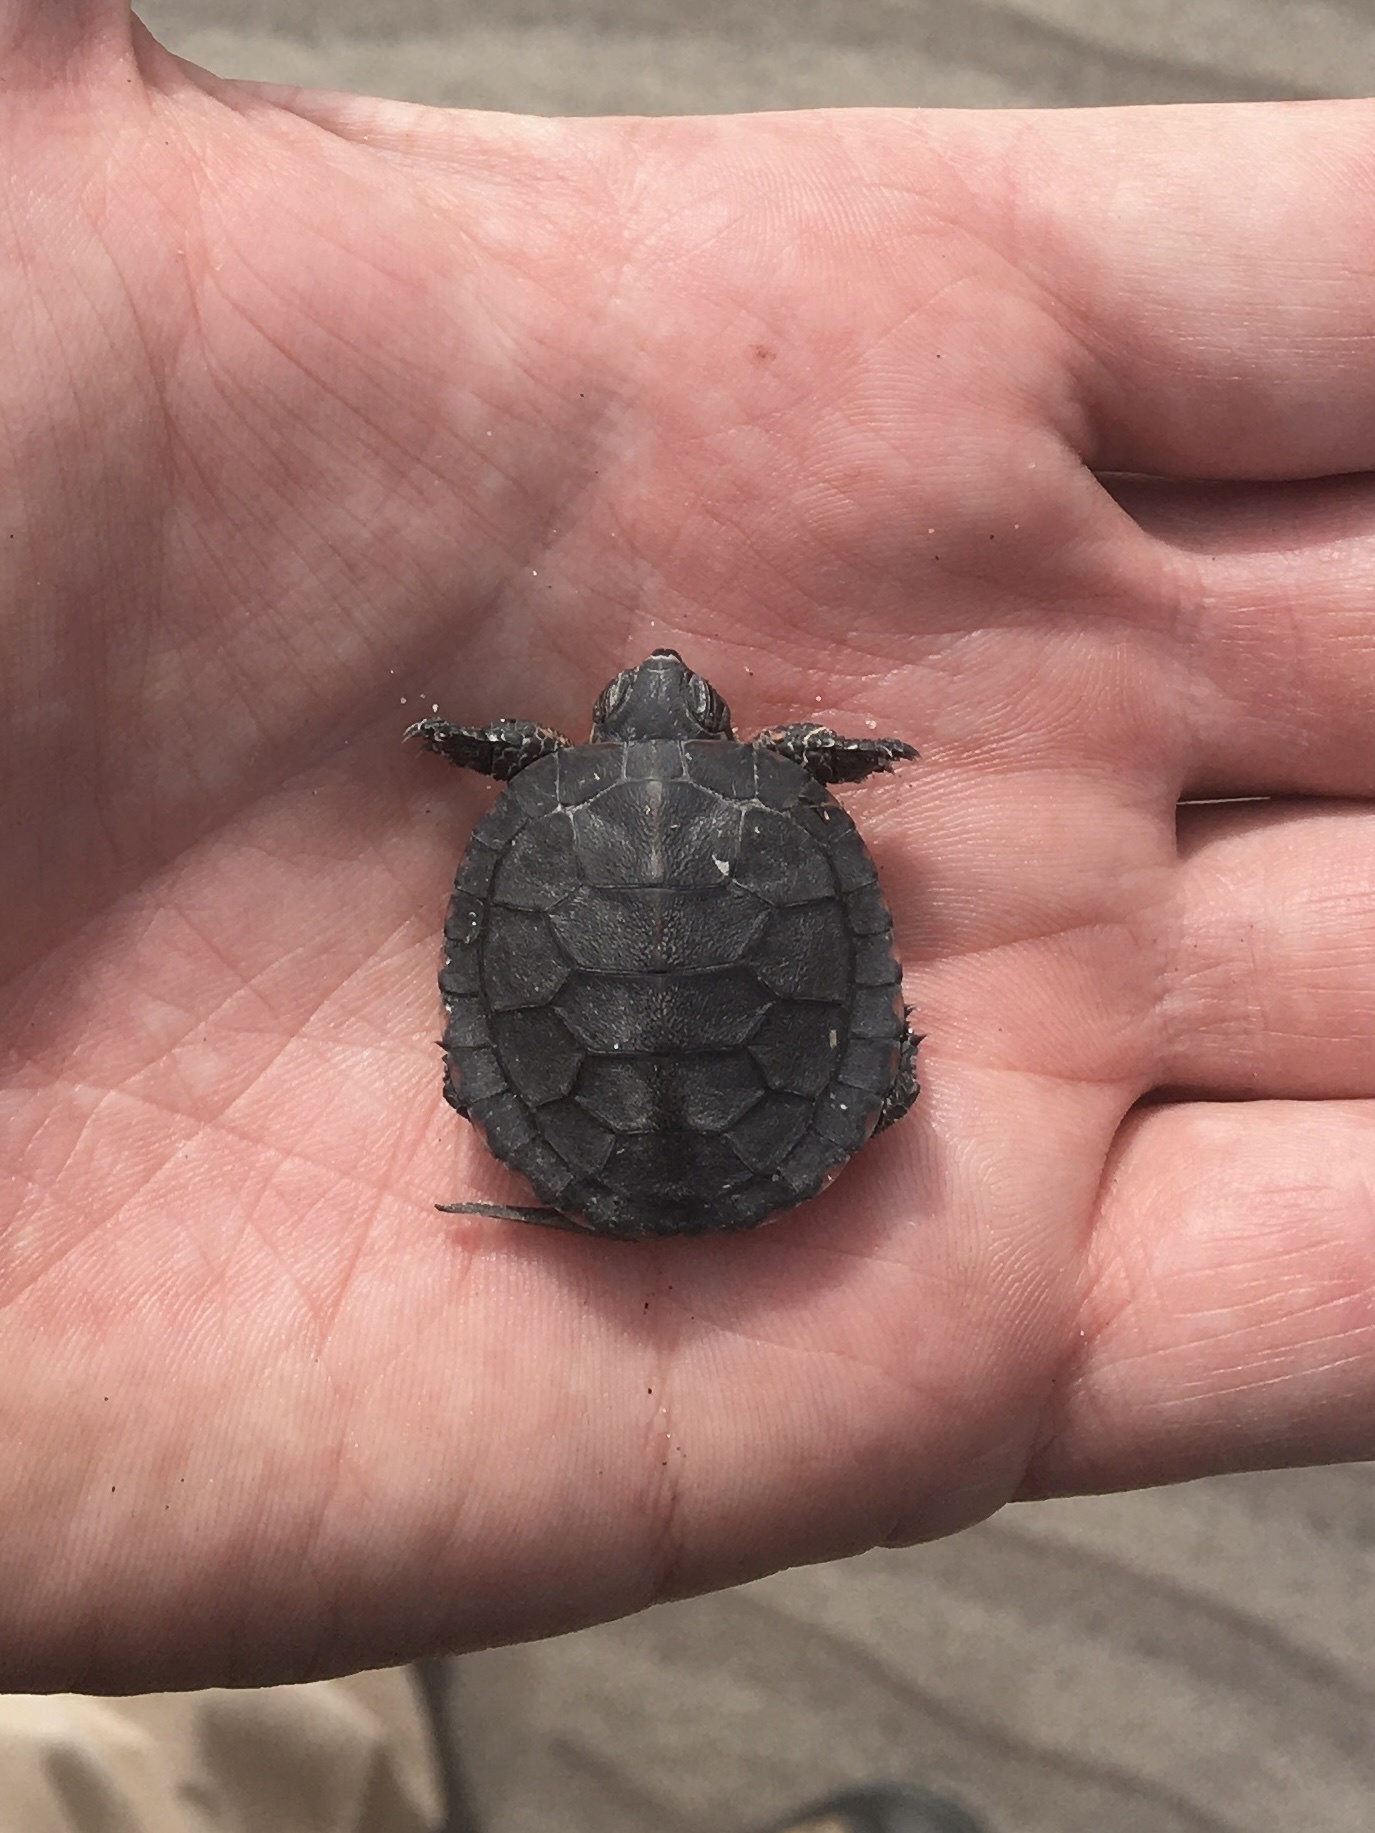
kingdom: Animalia
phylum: Chordata
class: Testudines
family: Emydidae
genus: Chrysemys
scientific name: Chrysemys picta
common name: Painted turtle
